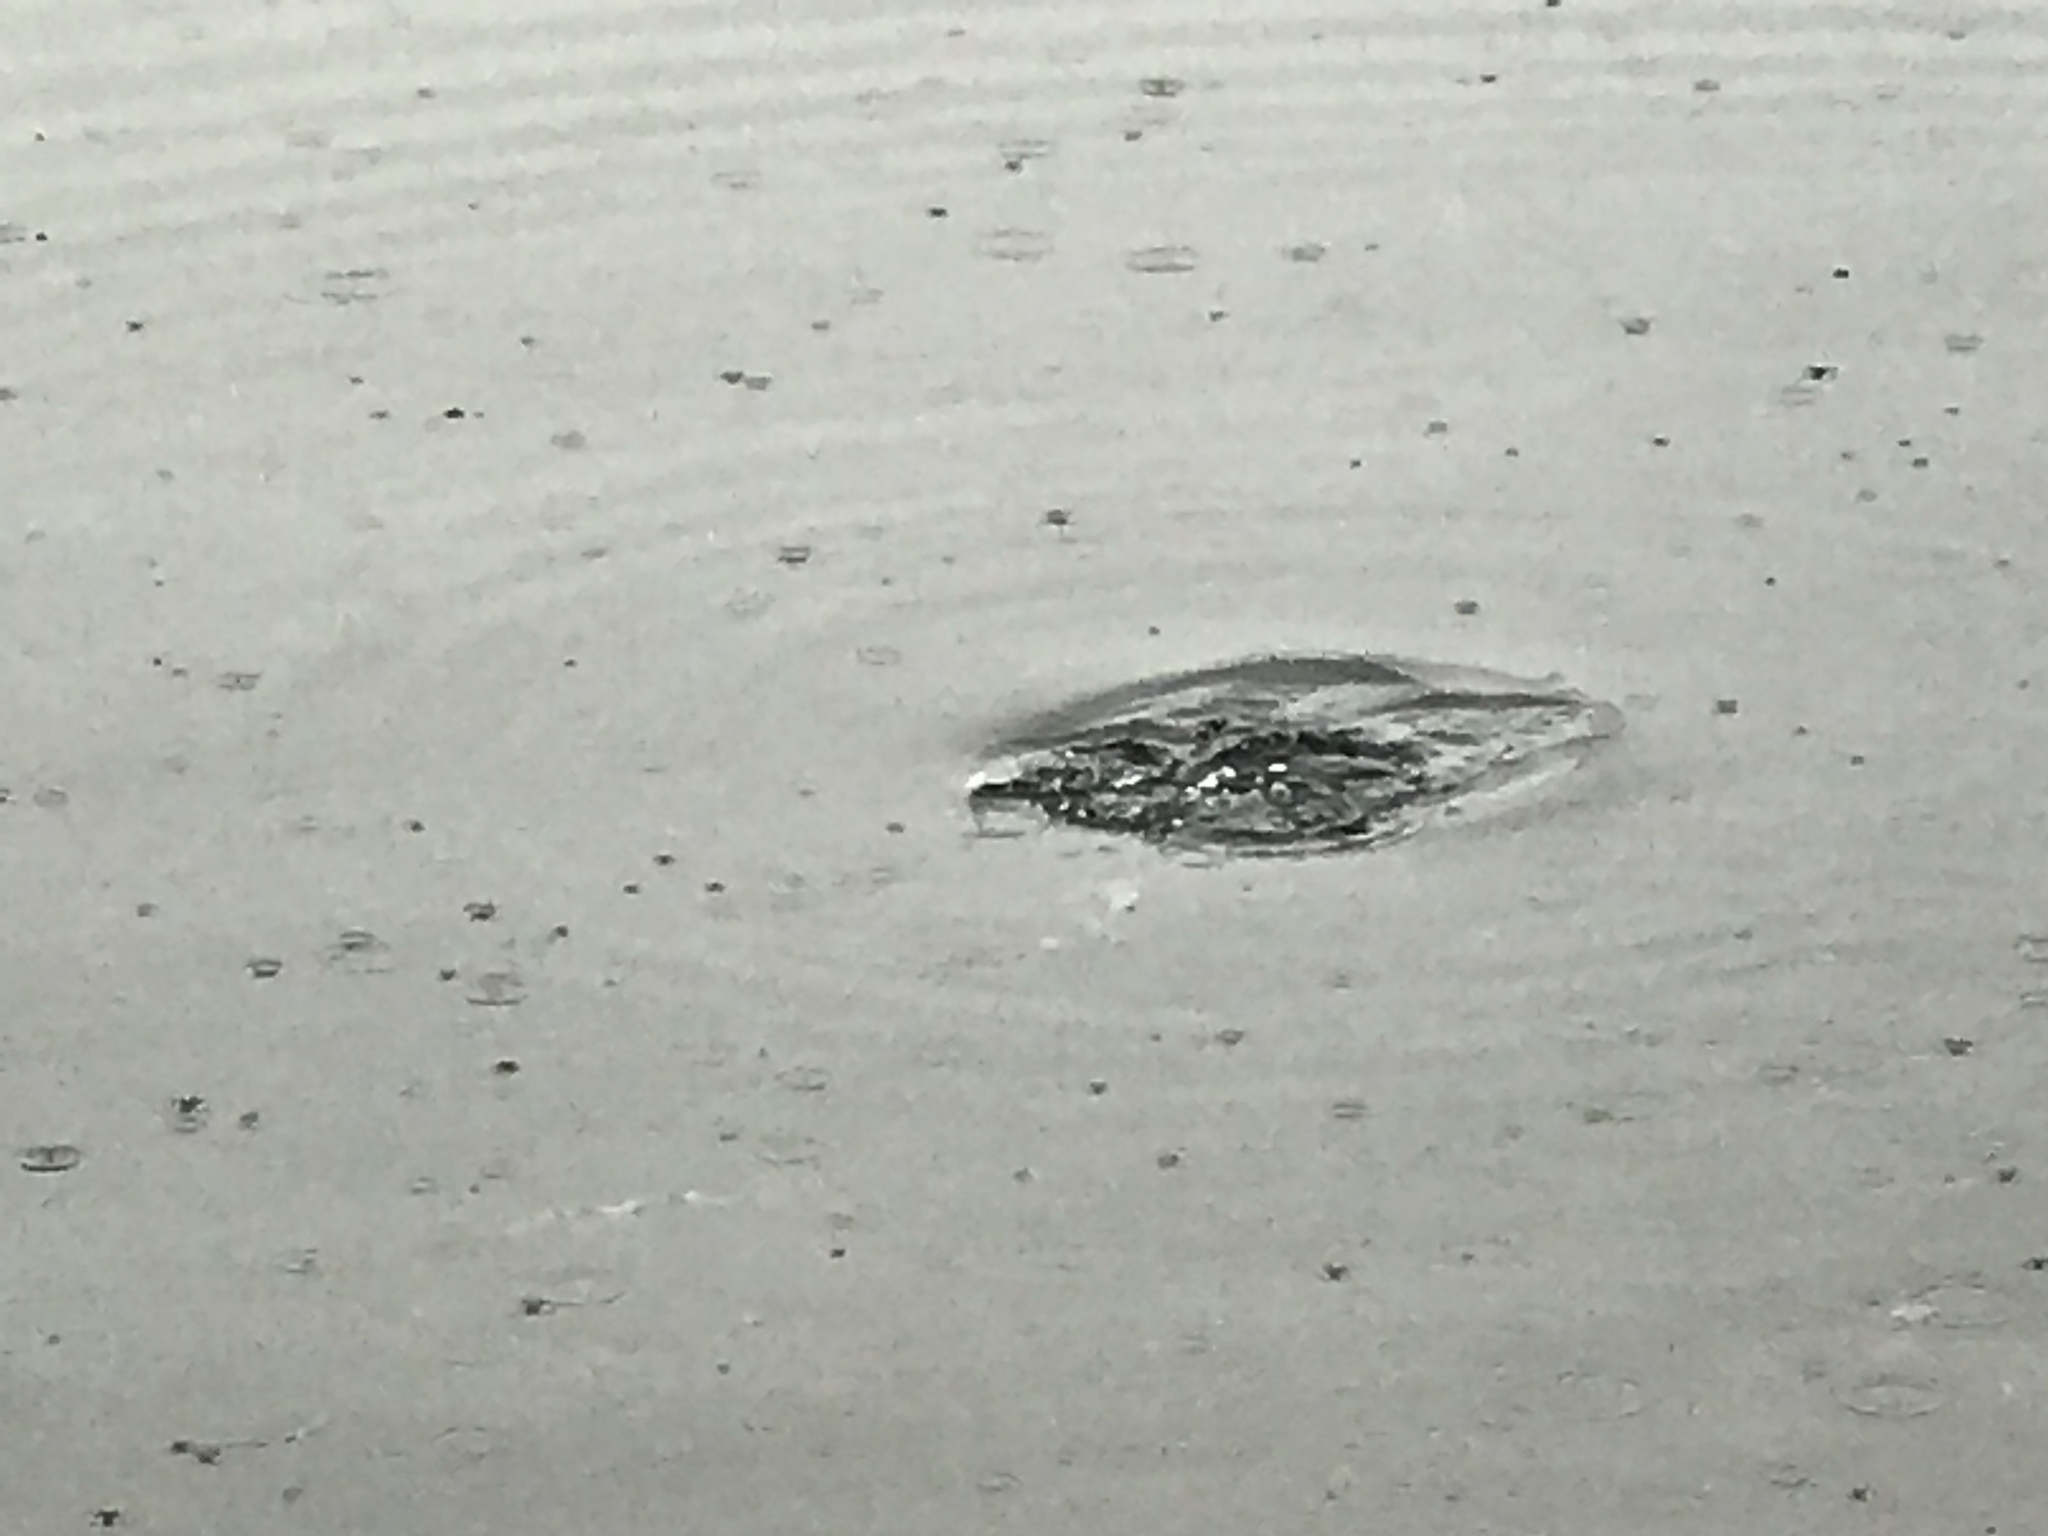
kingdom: Animalia
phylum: Chordata
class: Aves
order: Anseriformes
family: Anatidae
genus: Clangula
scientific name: Clangula hyemalis
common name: Long-tailed duck
